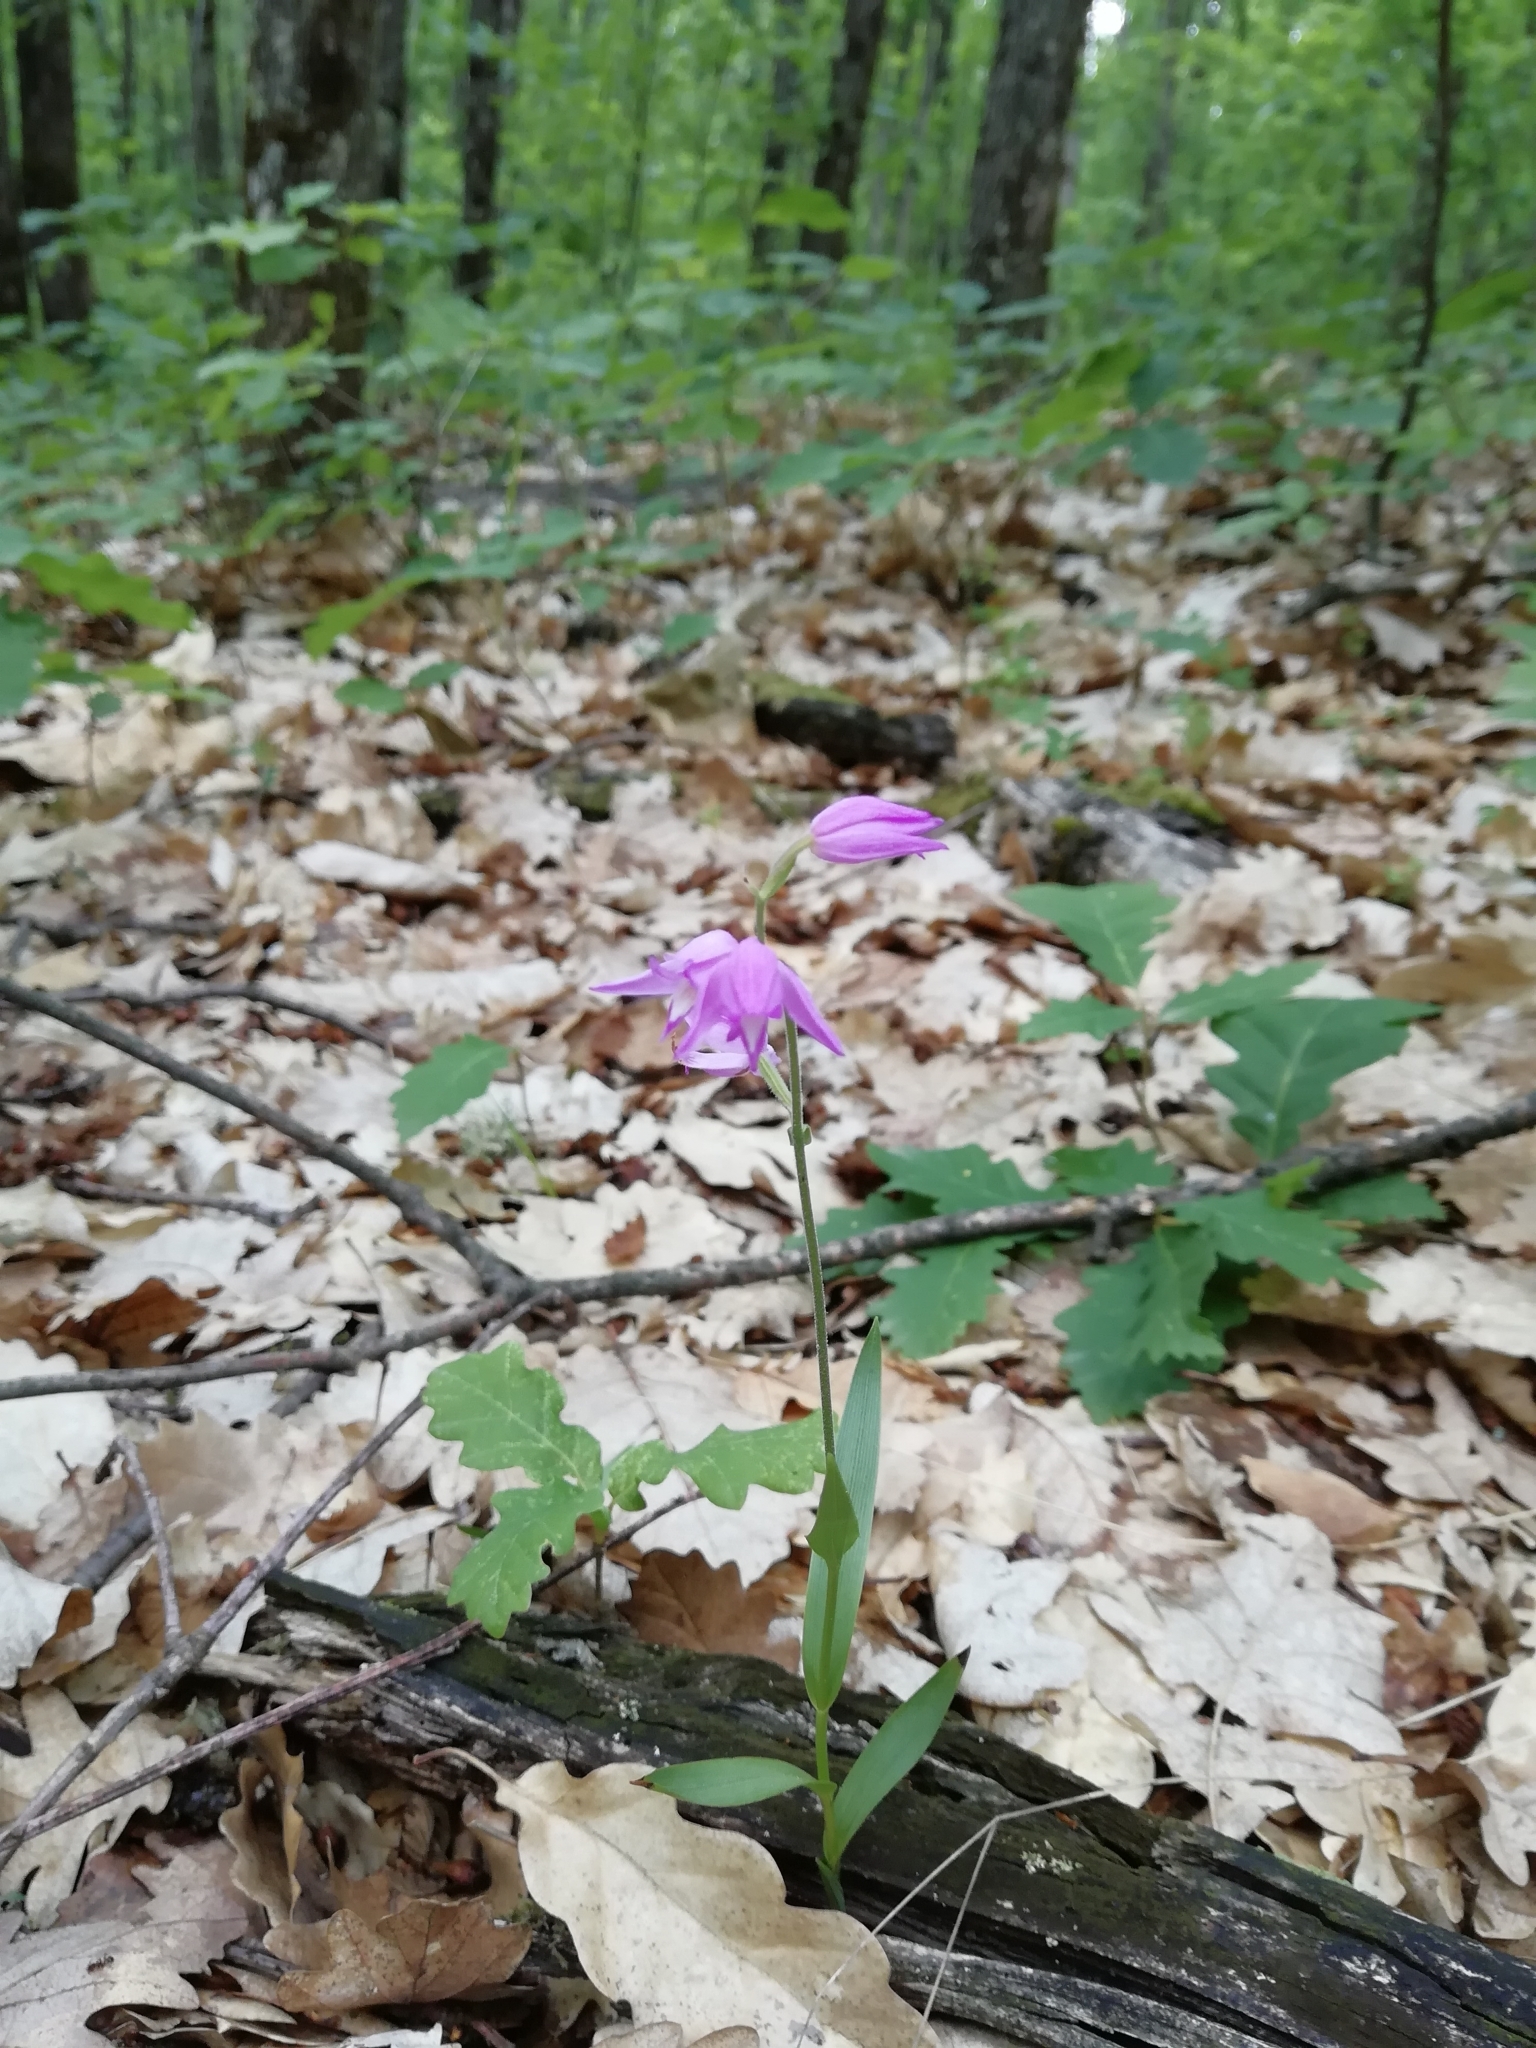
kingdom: Plantae
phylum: Tracheophyta
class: Liliopsida
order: Asparagales
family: Orchidaceae
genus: Cephalanthera
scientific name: Cephalanthera rubra
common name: Red helleborine
